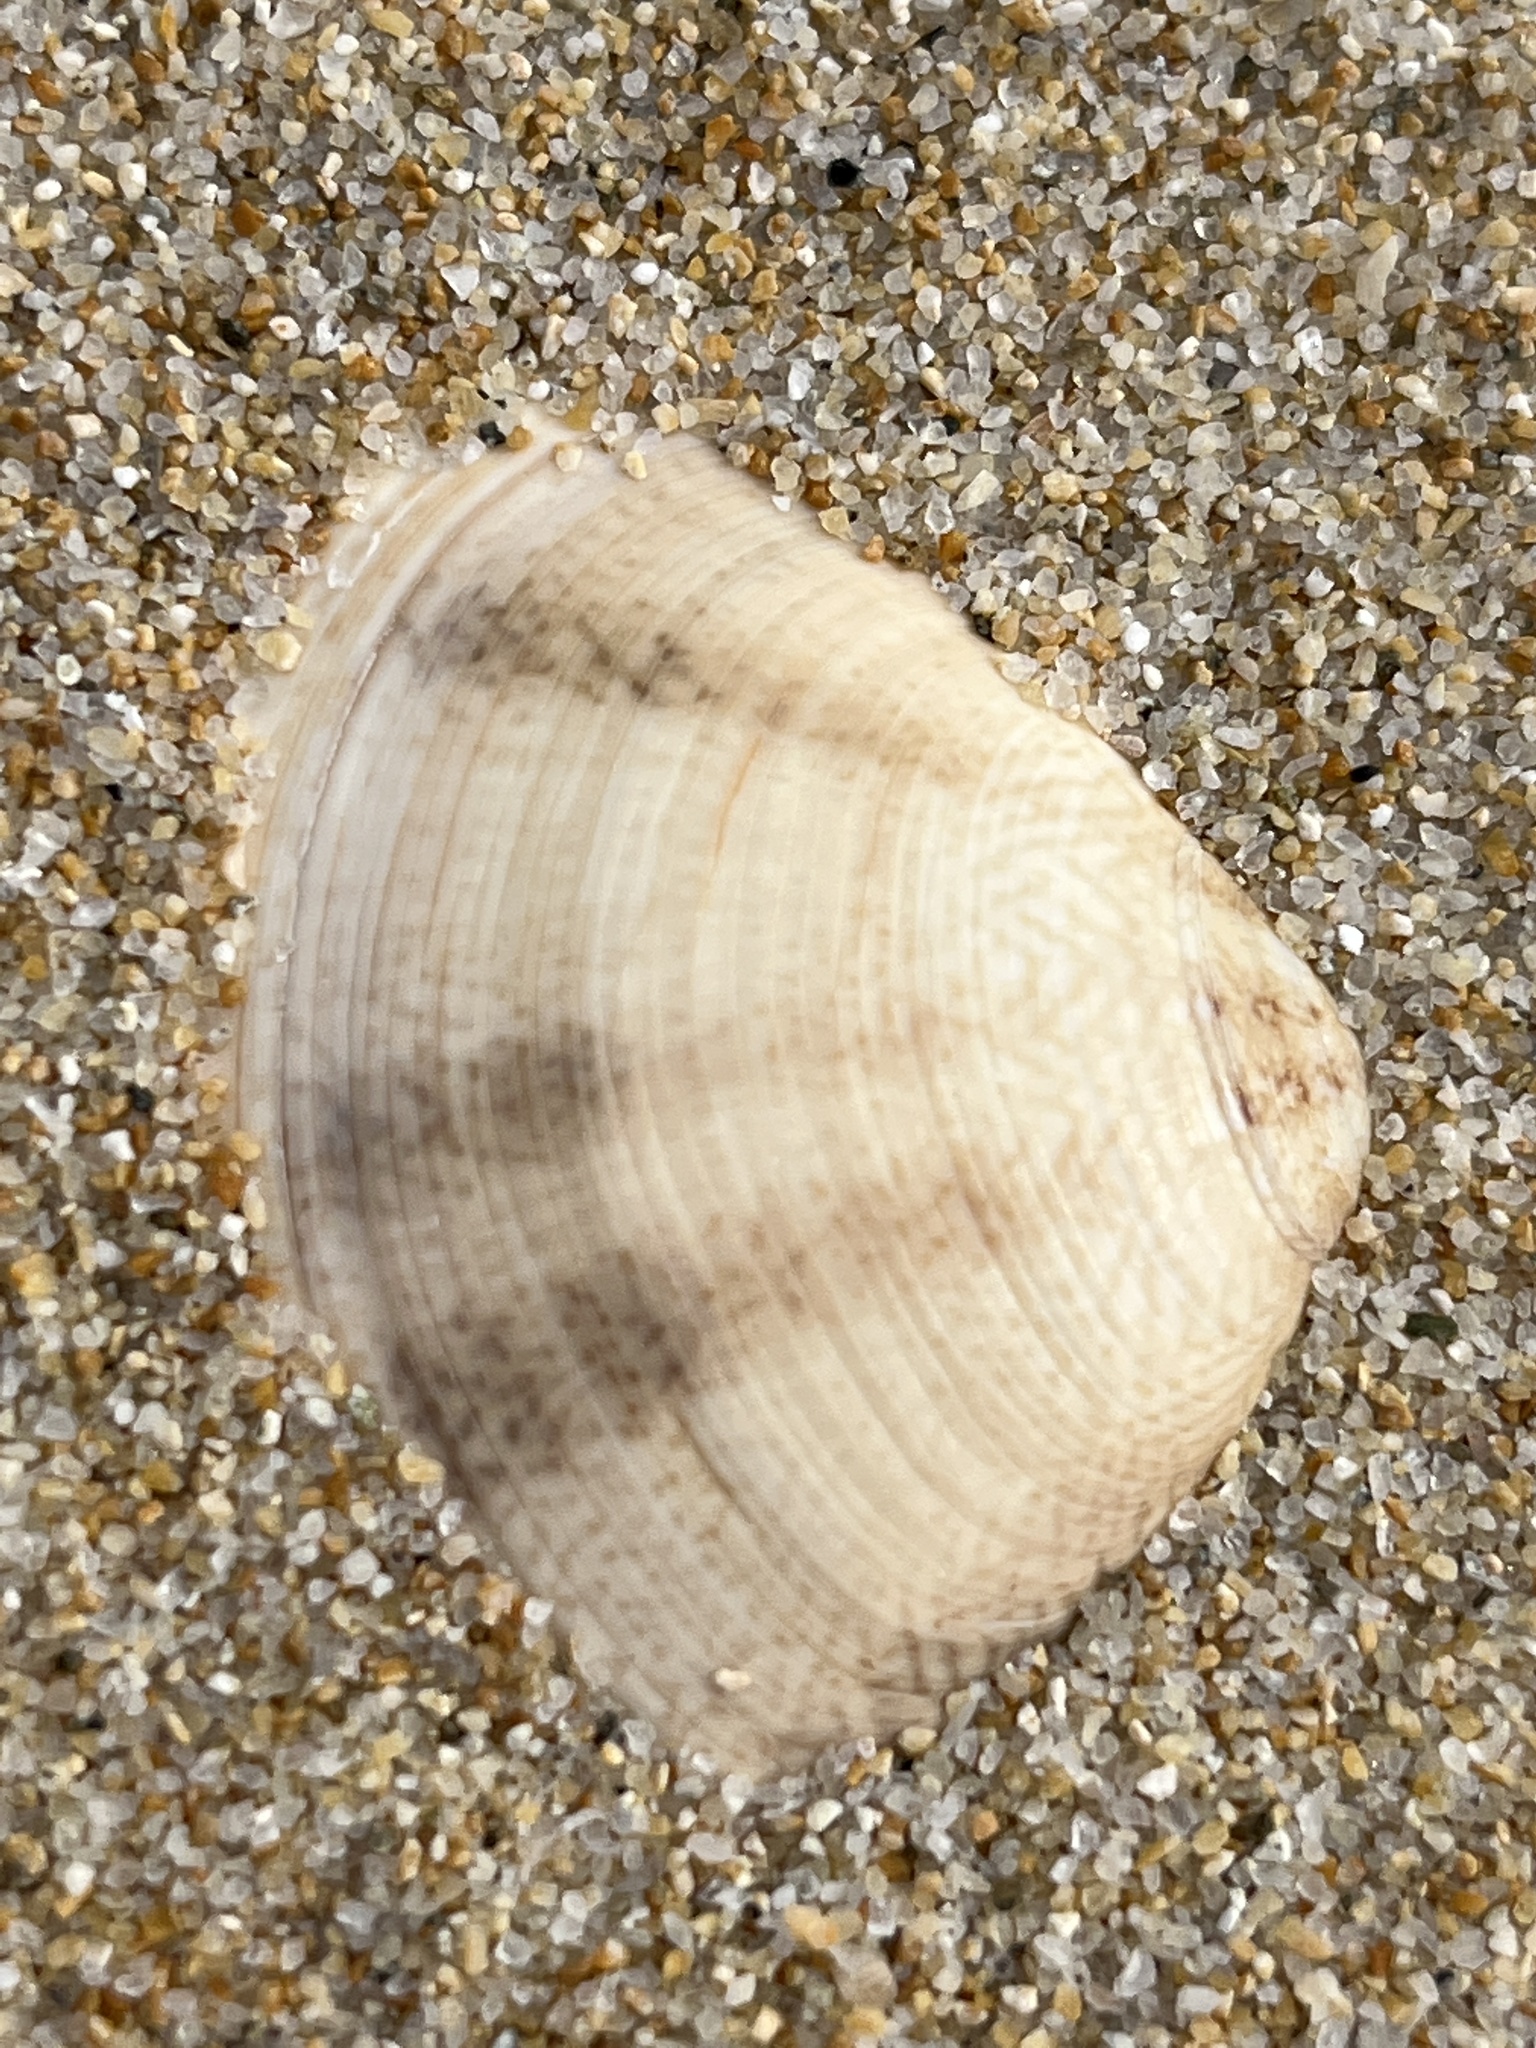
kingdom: Animalia
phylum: Mollusca
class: Bivalvia
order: Venerida
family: Veneridae
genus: Macridiscus
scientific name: Macridiscus aequilatera
